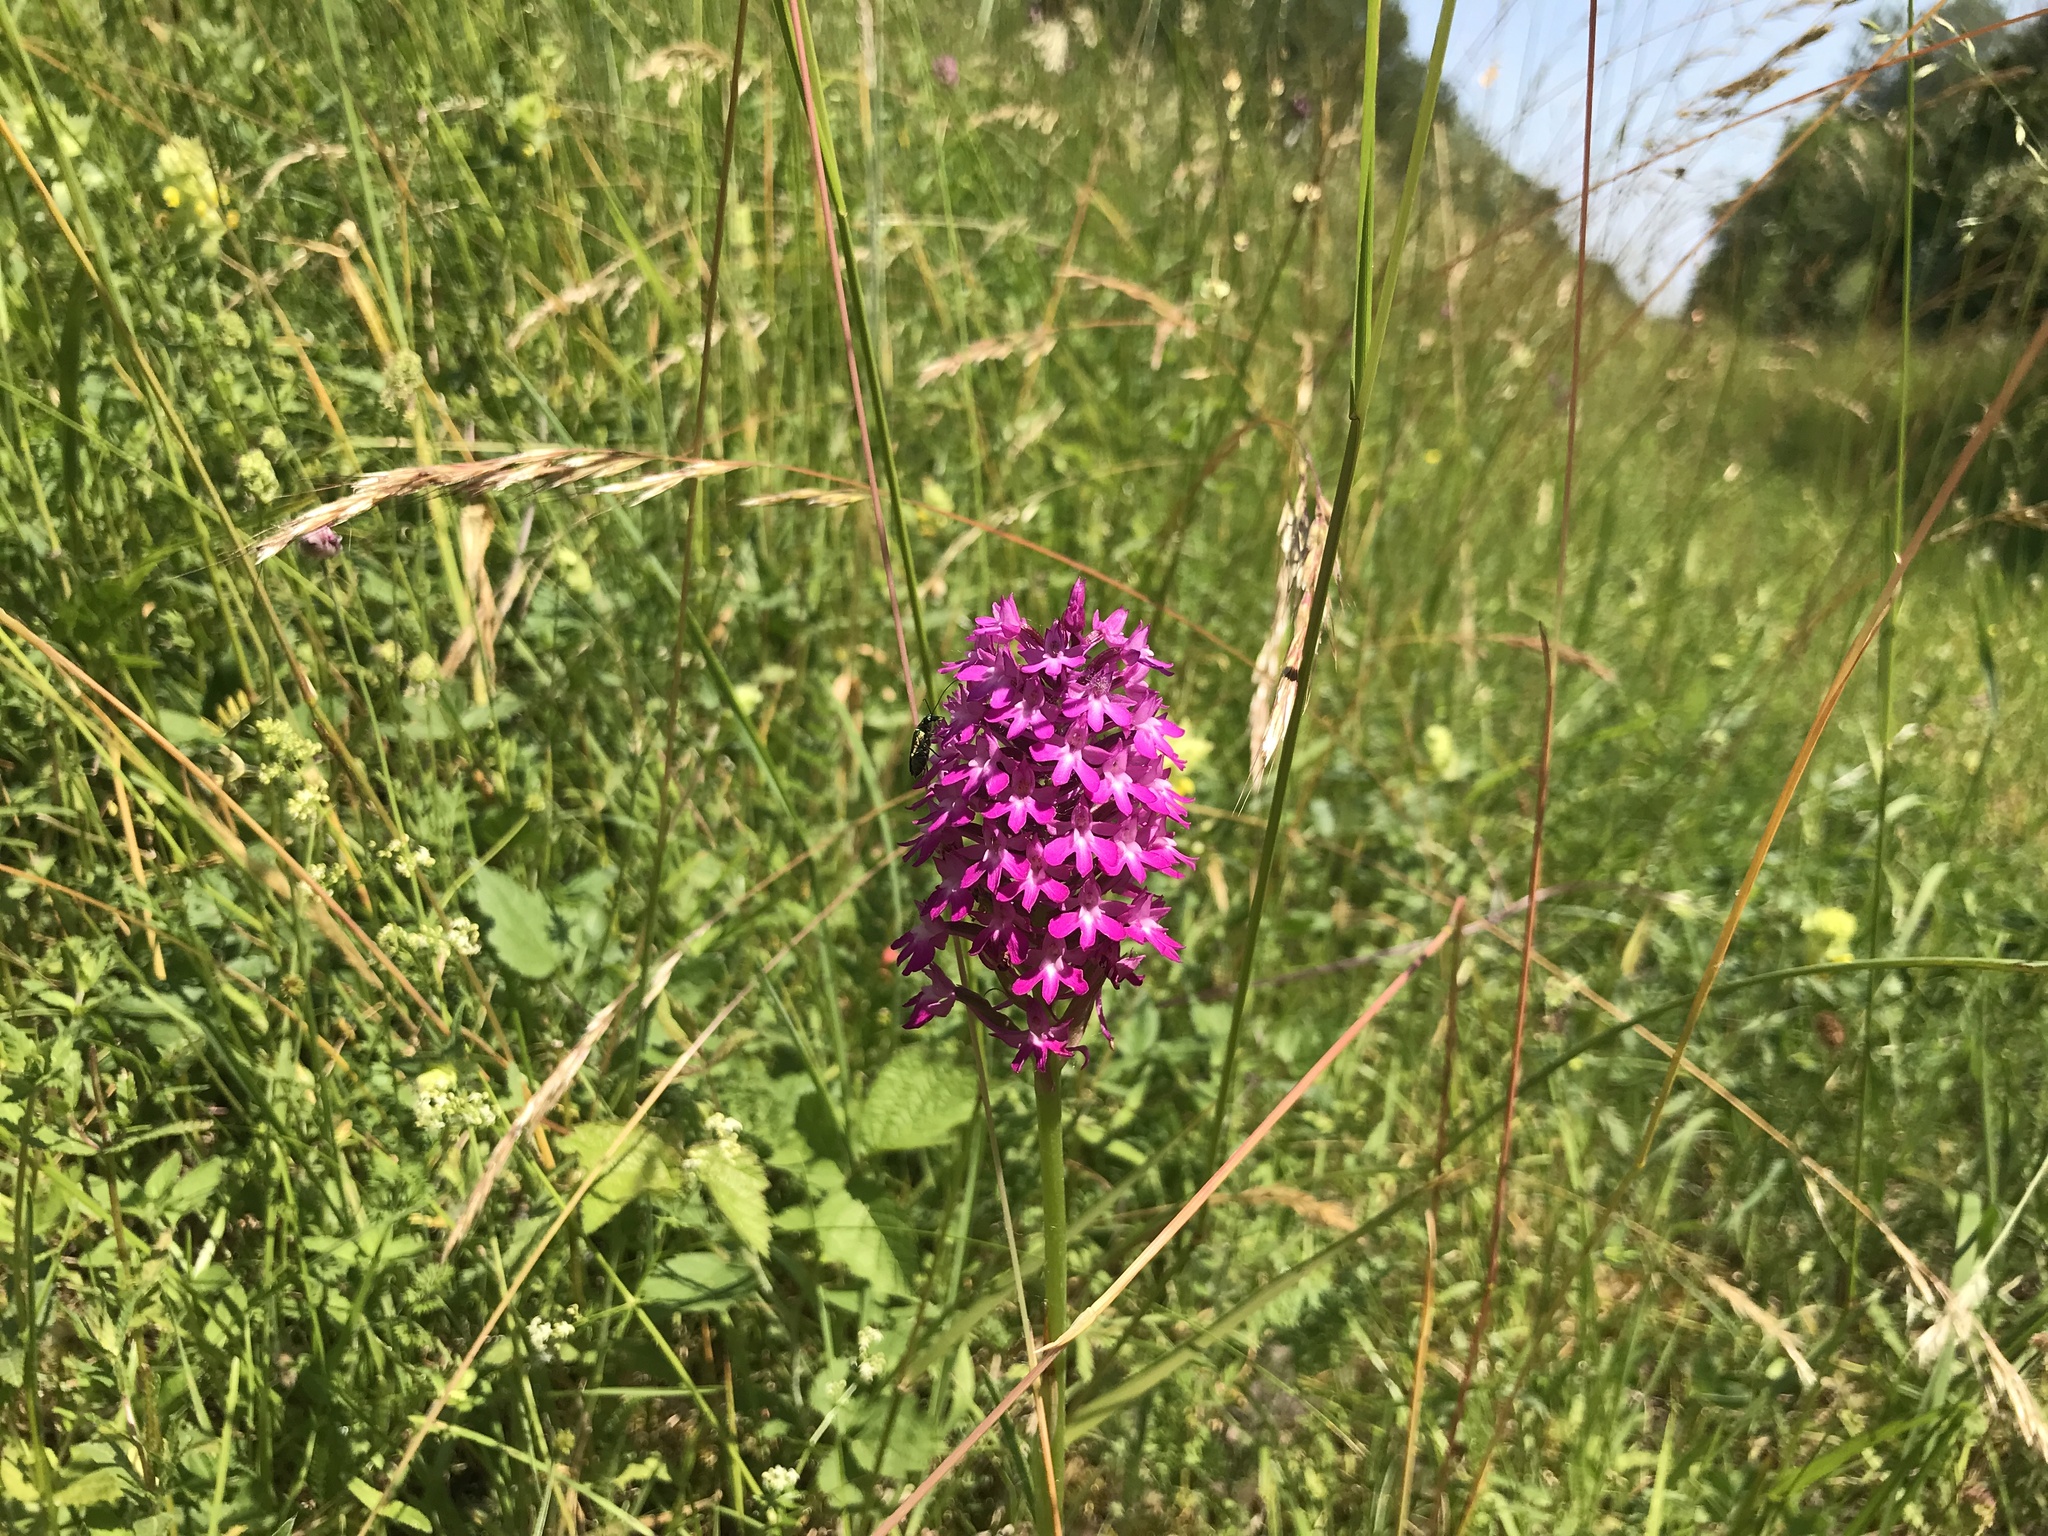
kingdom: Plantae
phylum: Tracheophyta
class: Liliopsida
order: Asparagales
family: Orchidaceae
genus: Anacamptis
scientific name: Anacamptis pyramidalis
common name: Pyramidal orchid
